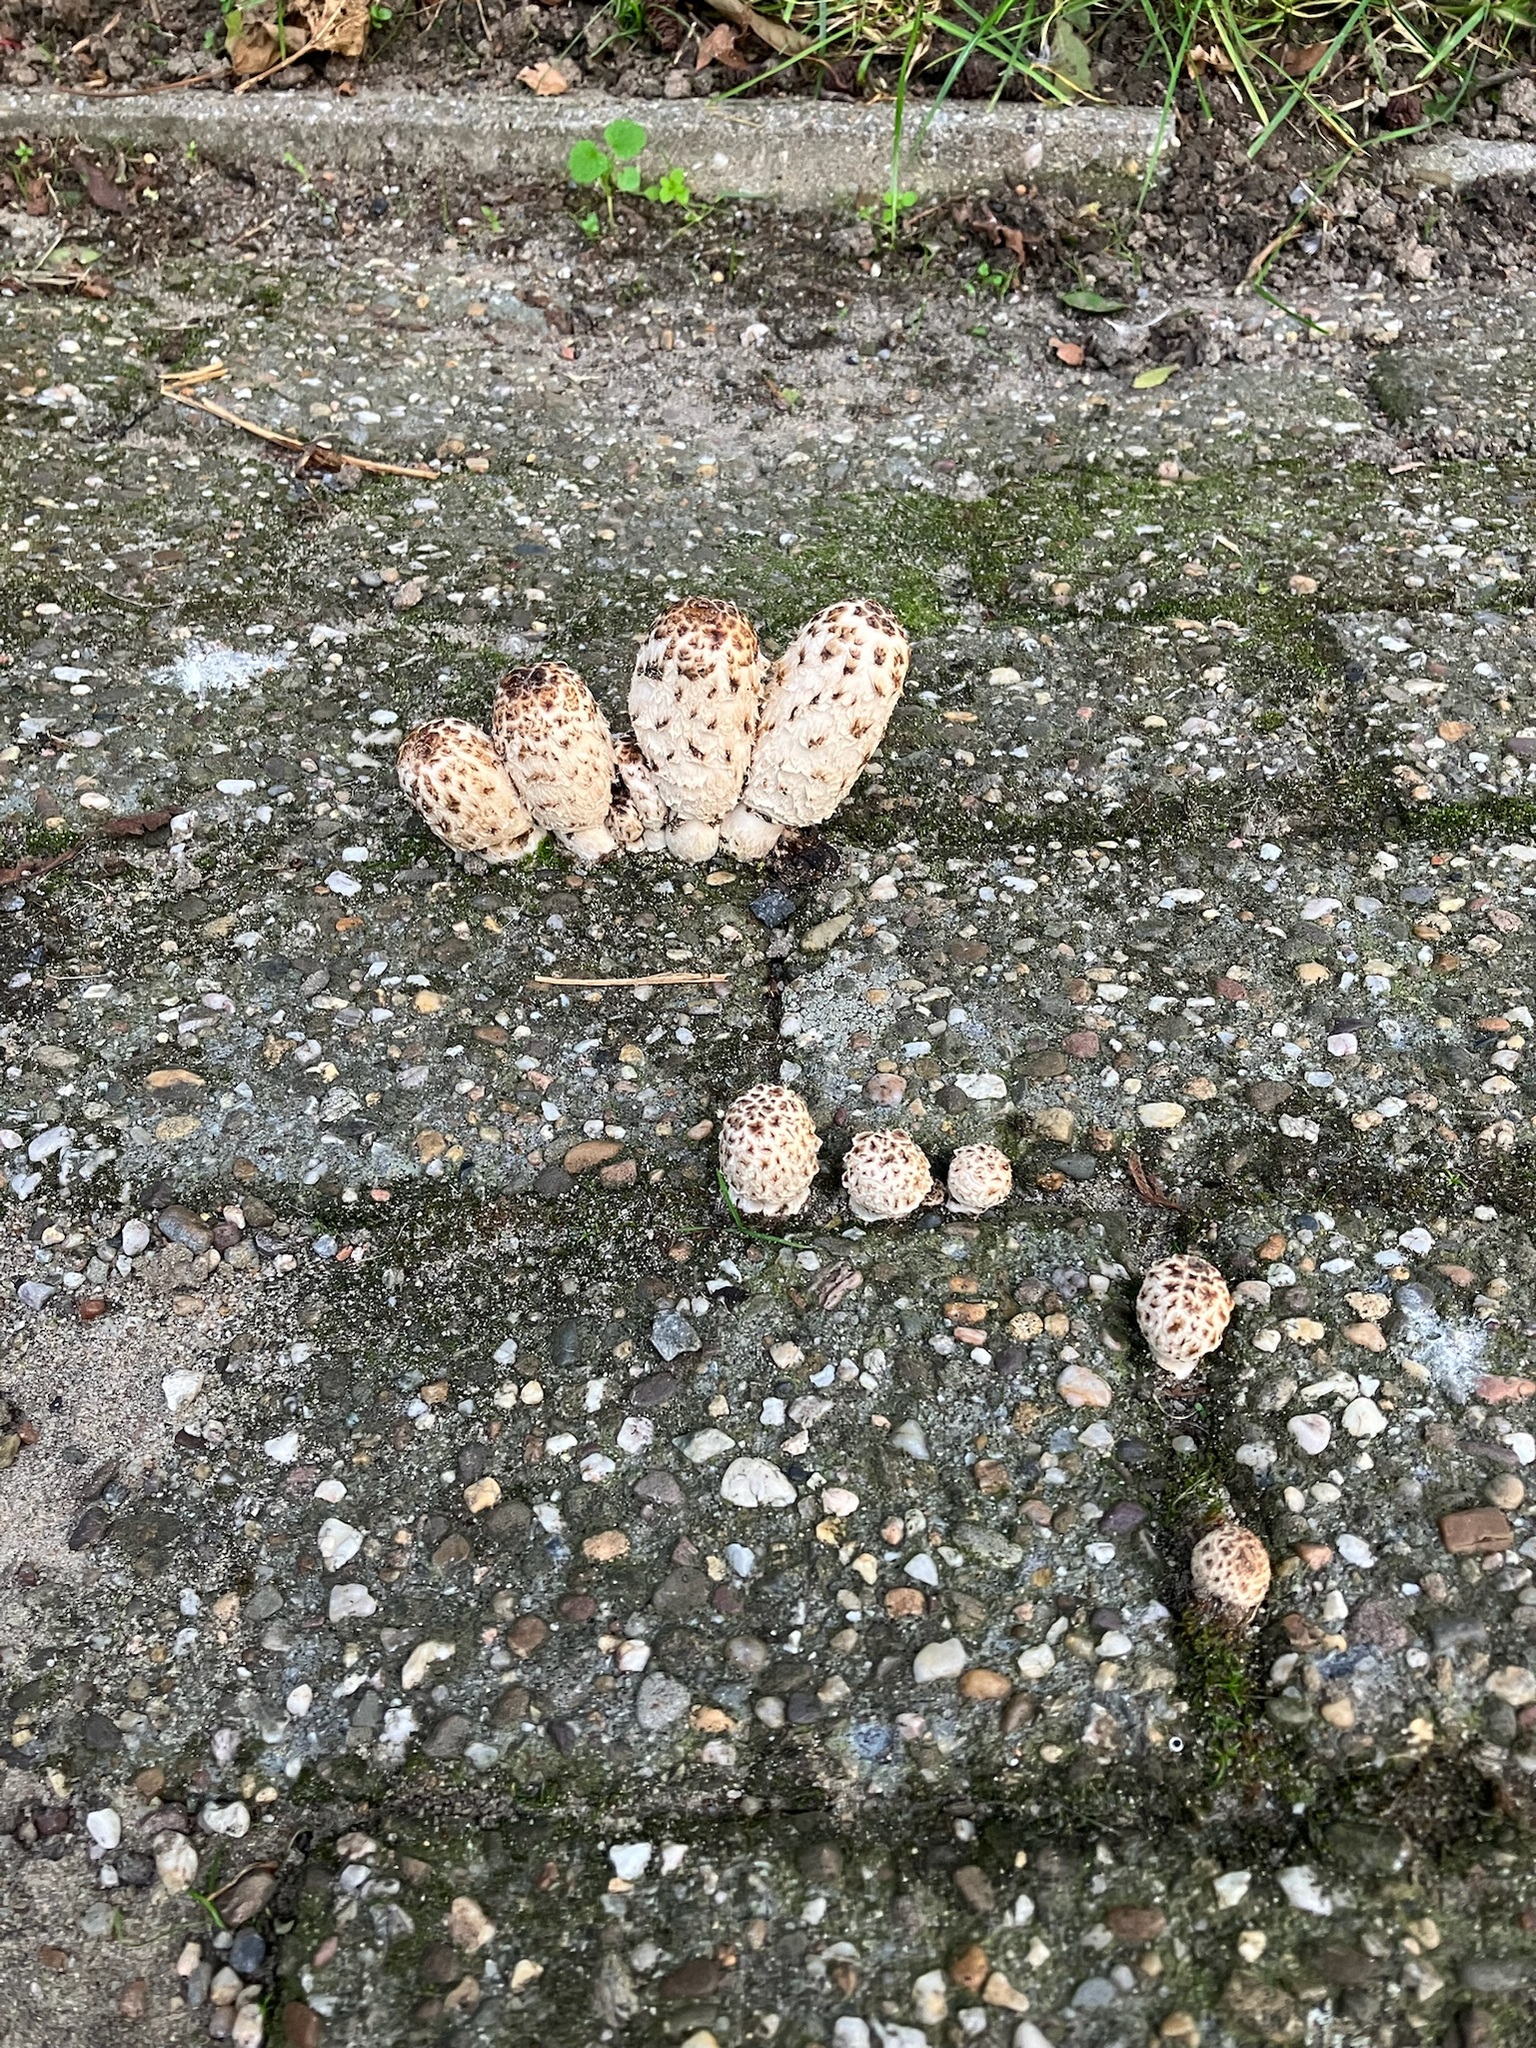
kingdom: Fungi
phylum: Basidiomycota
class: Agaricomycetes
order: Agaricales
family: Agaricaceae
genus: Coprinus
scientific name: Coprinus comatus
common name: Lawyer's wig
